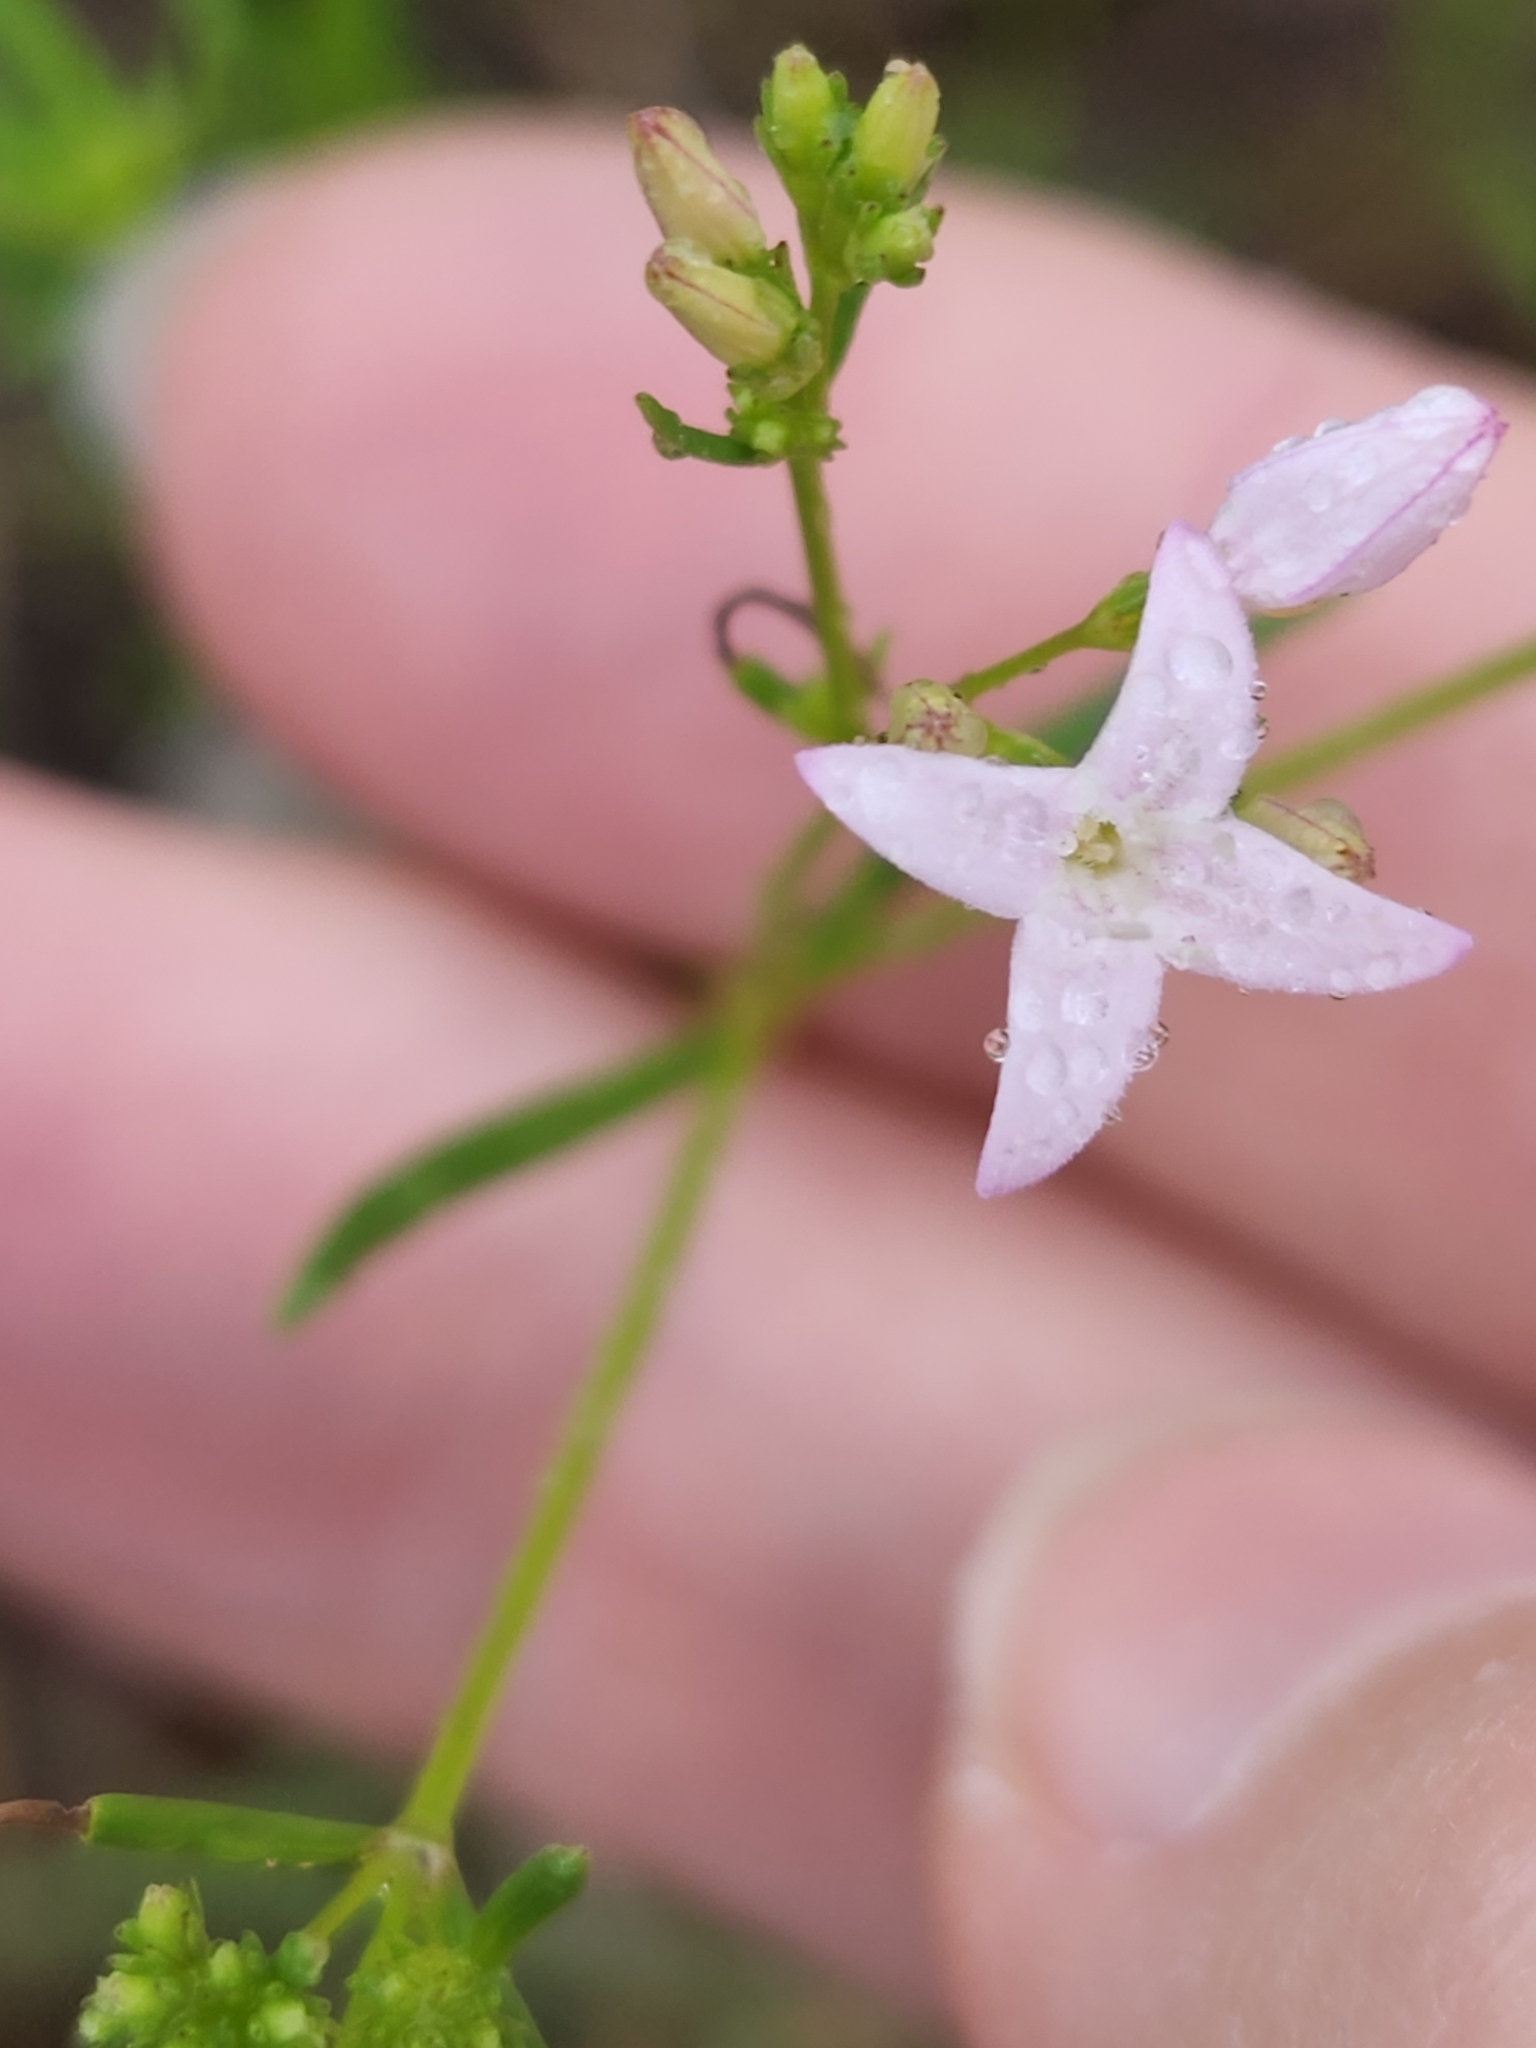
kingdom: Plantae
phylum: Tracheophyta
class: Magnoliopsida
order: Gentianales
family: Rubiaceae
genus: Stenaria
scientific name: Stenaria nigricans
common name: Diamondflowers
